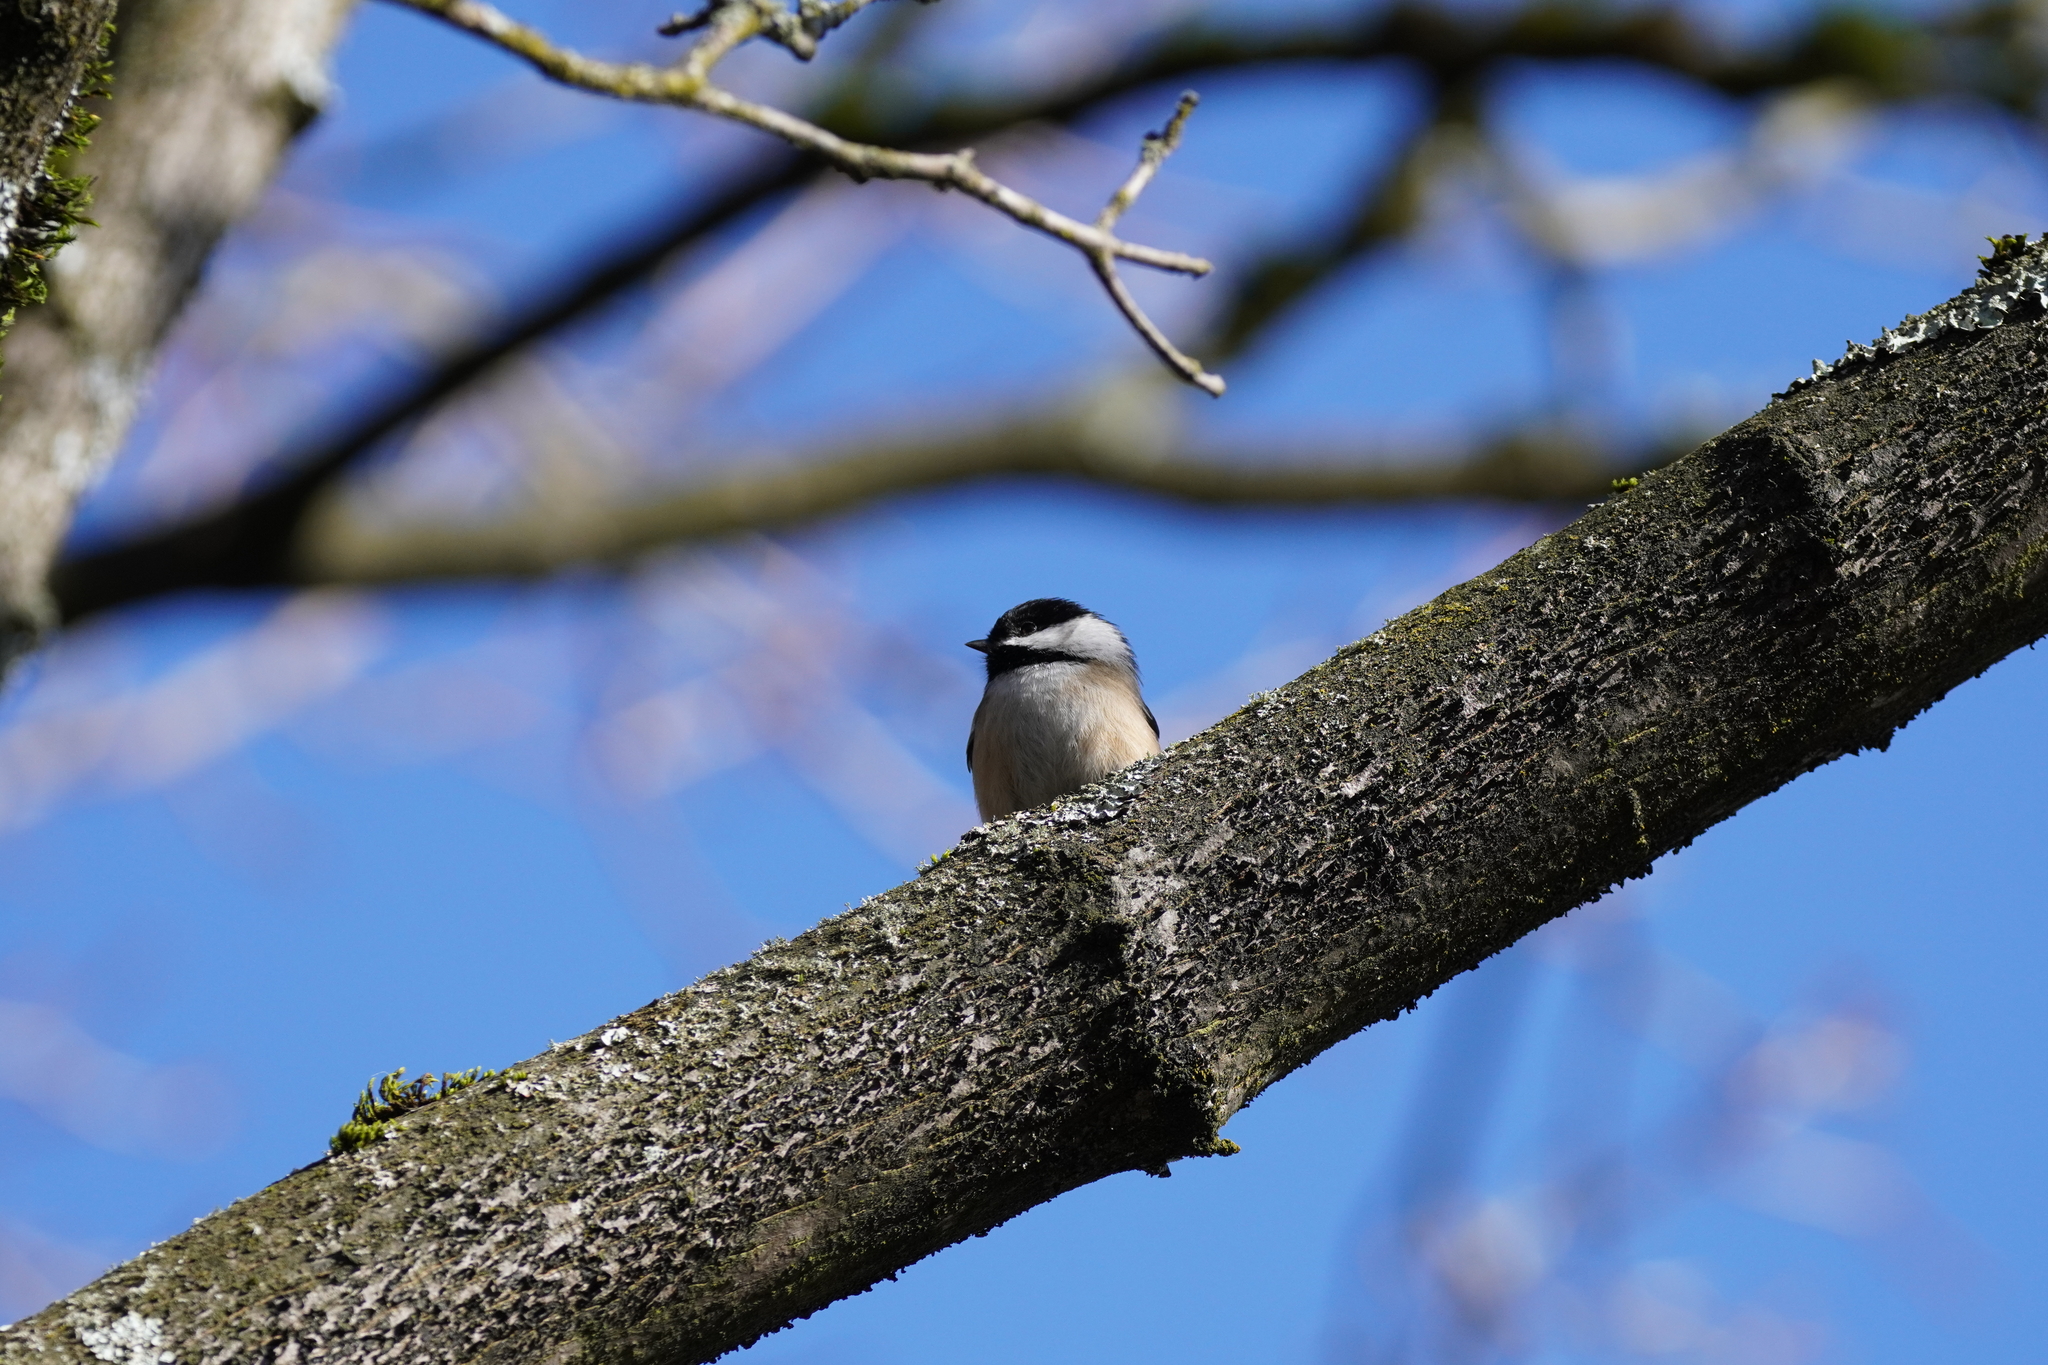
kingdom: Animalia
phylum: Chordata
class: Aves
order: Passeriformes
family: Paridae
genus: Poecile
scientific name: Poecile atricapillus
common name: Black-capped chickadee
